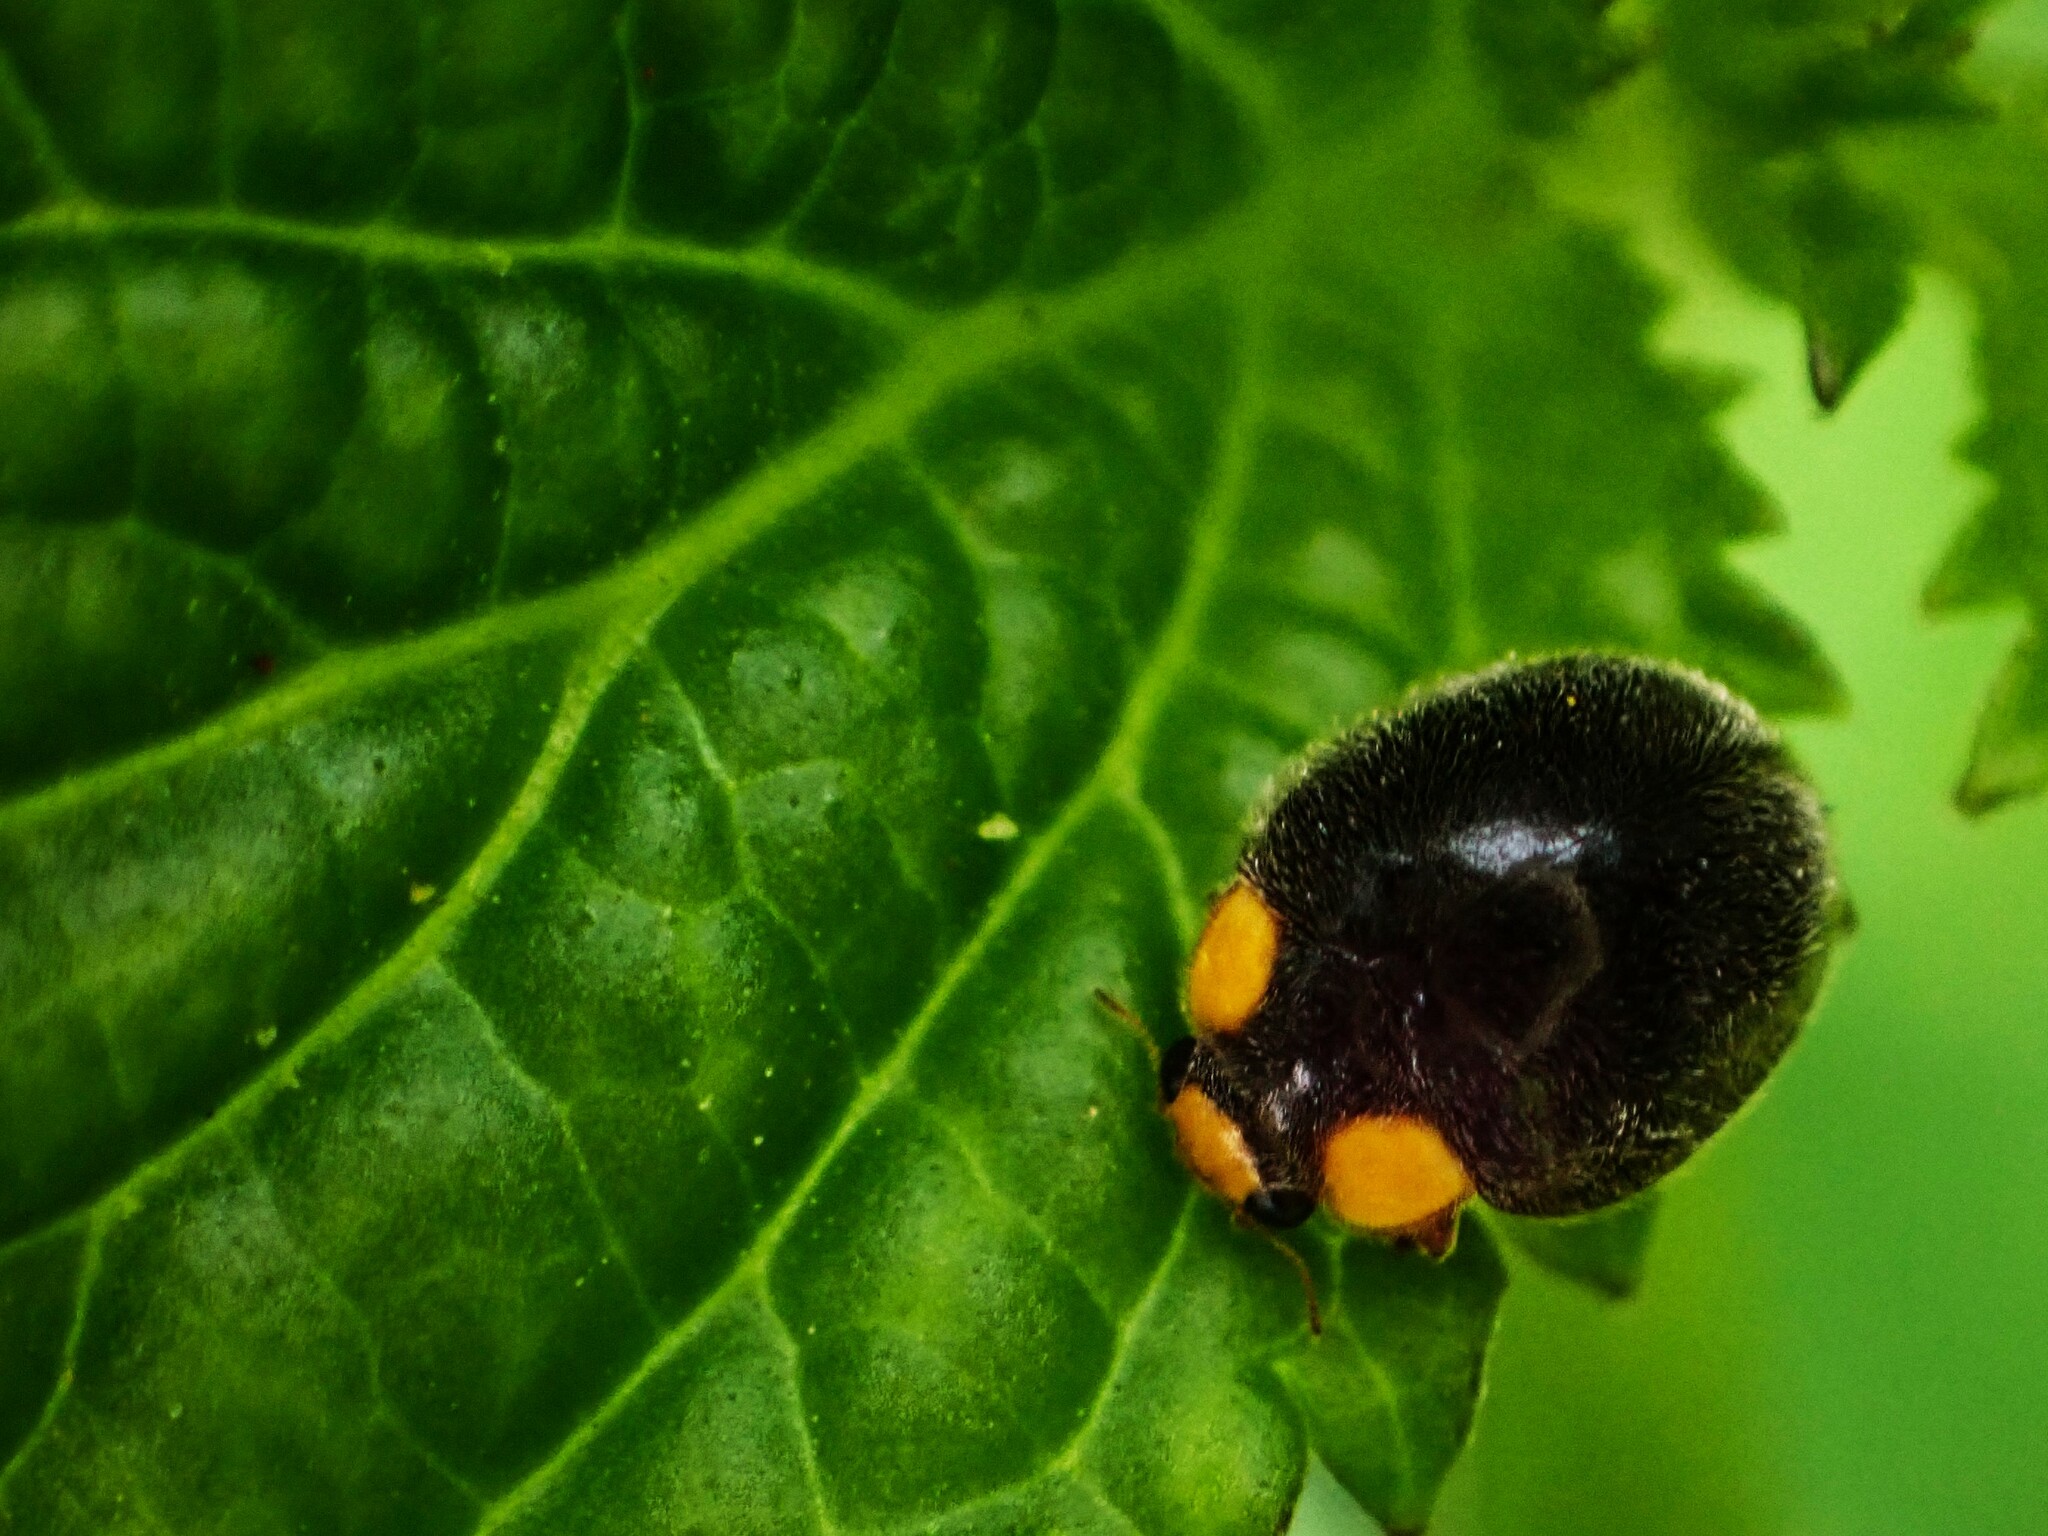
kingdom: Animalia
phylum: Arthropoda
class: Insecta
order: Coleoptera
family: Coccinellidae
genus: Scymnodes
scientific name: Scymnodes lividigaster
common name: Yellowshouldered lady beetle
